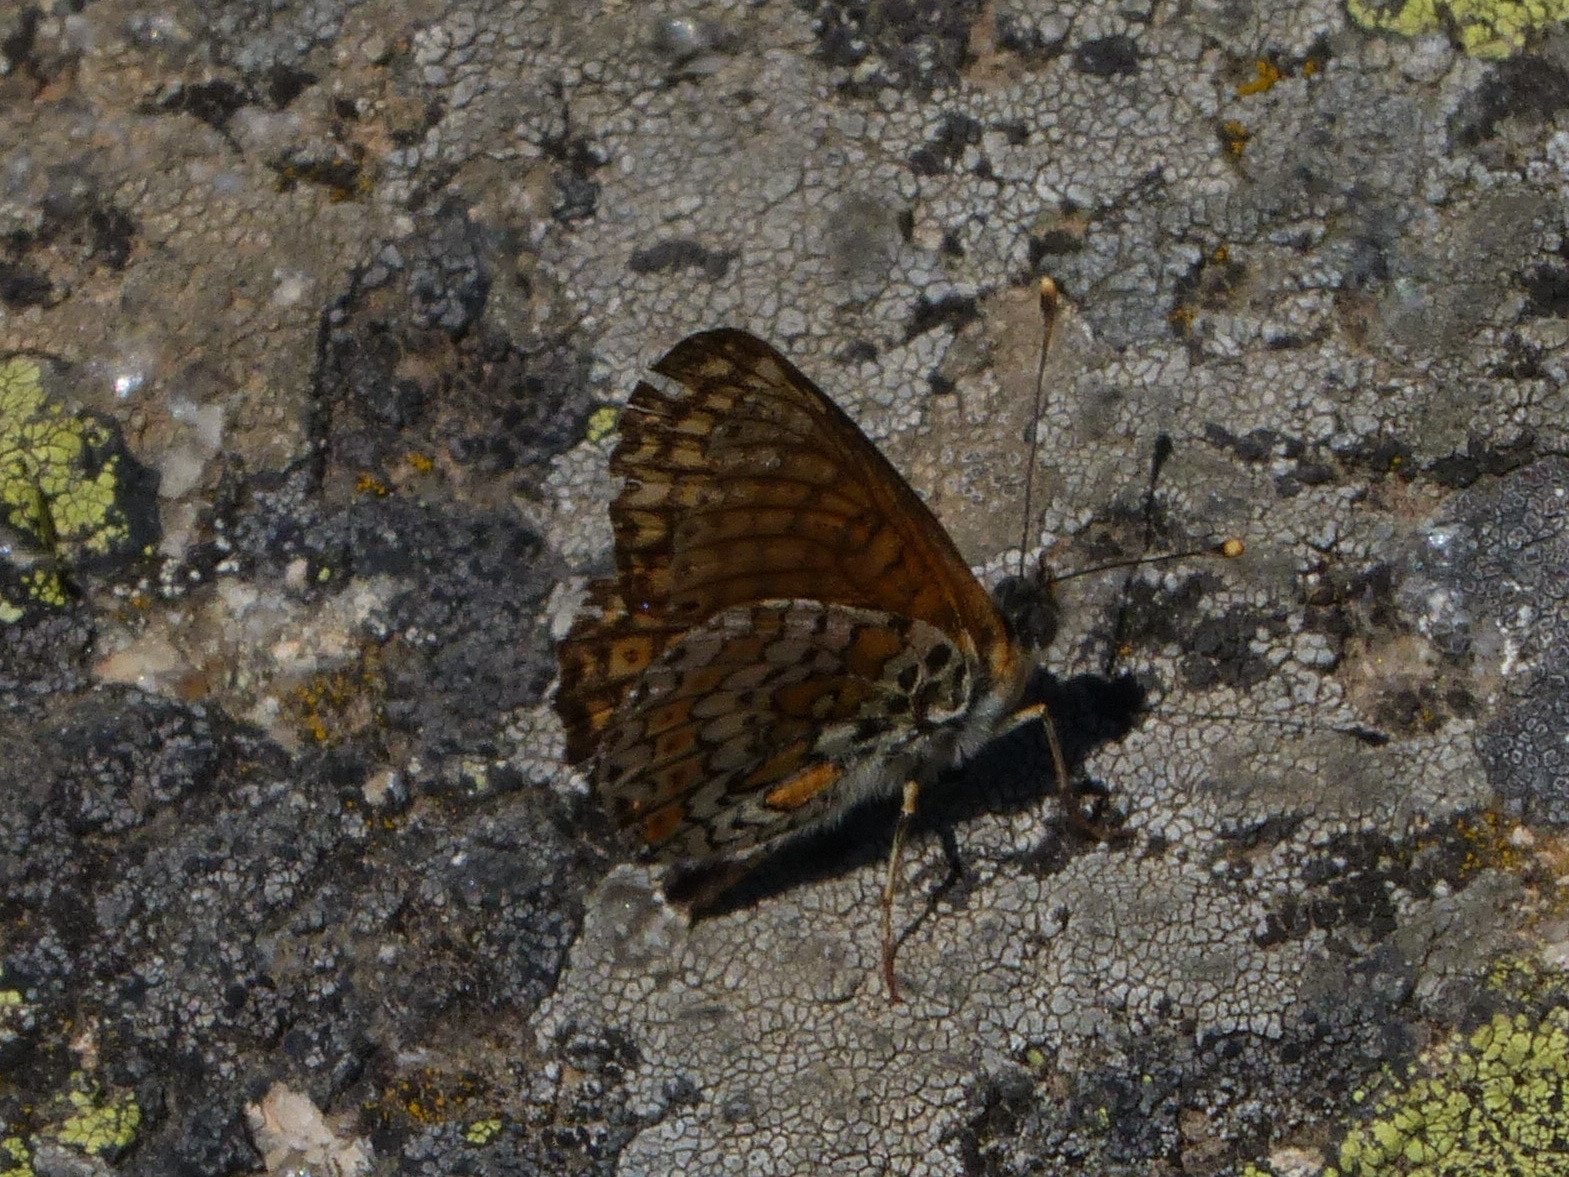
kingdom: Animalia
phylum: Arthropoda
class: Insecta
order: Lepidoptera
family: Nymphalidae
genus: Melitaea
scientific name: Melitaea cinxia
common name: Glanville fritillary
